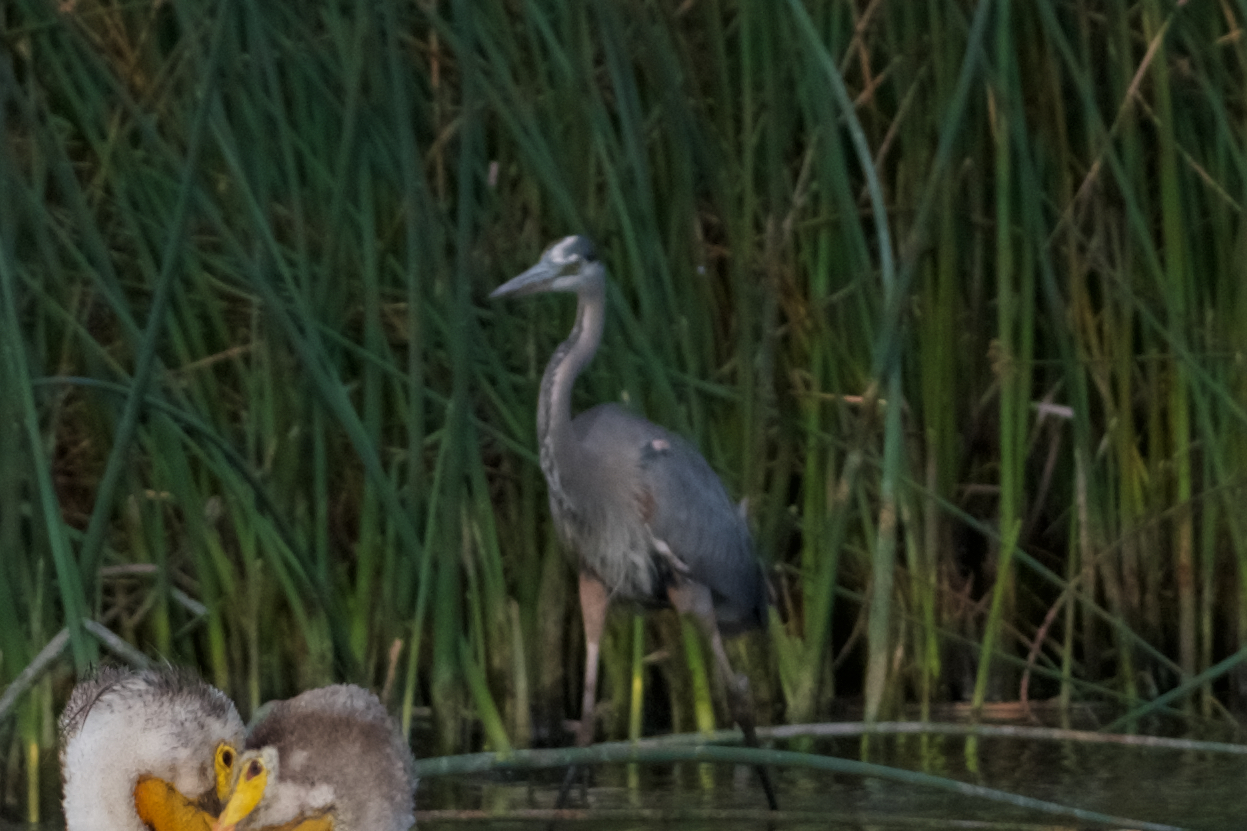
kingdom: Animalia
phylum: Chordata
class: Aves
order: Pelecaniformes
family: Ardeidae
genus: Ardea
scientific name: Ardea herodias
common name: Great blue heron
